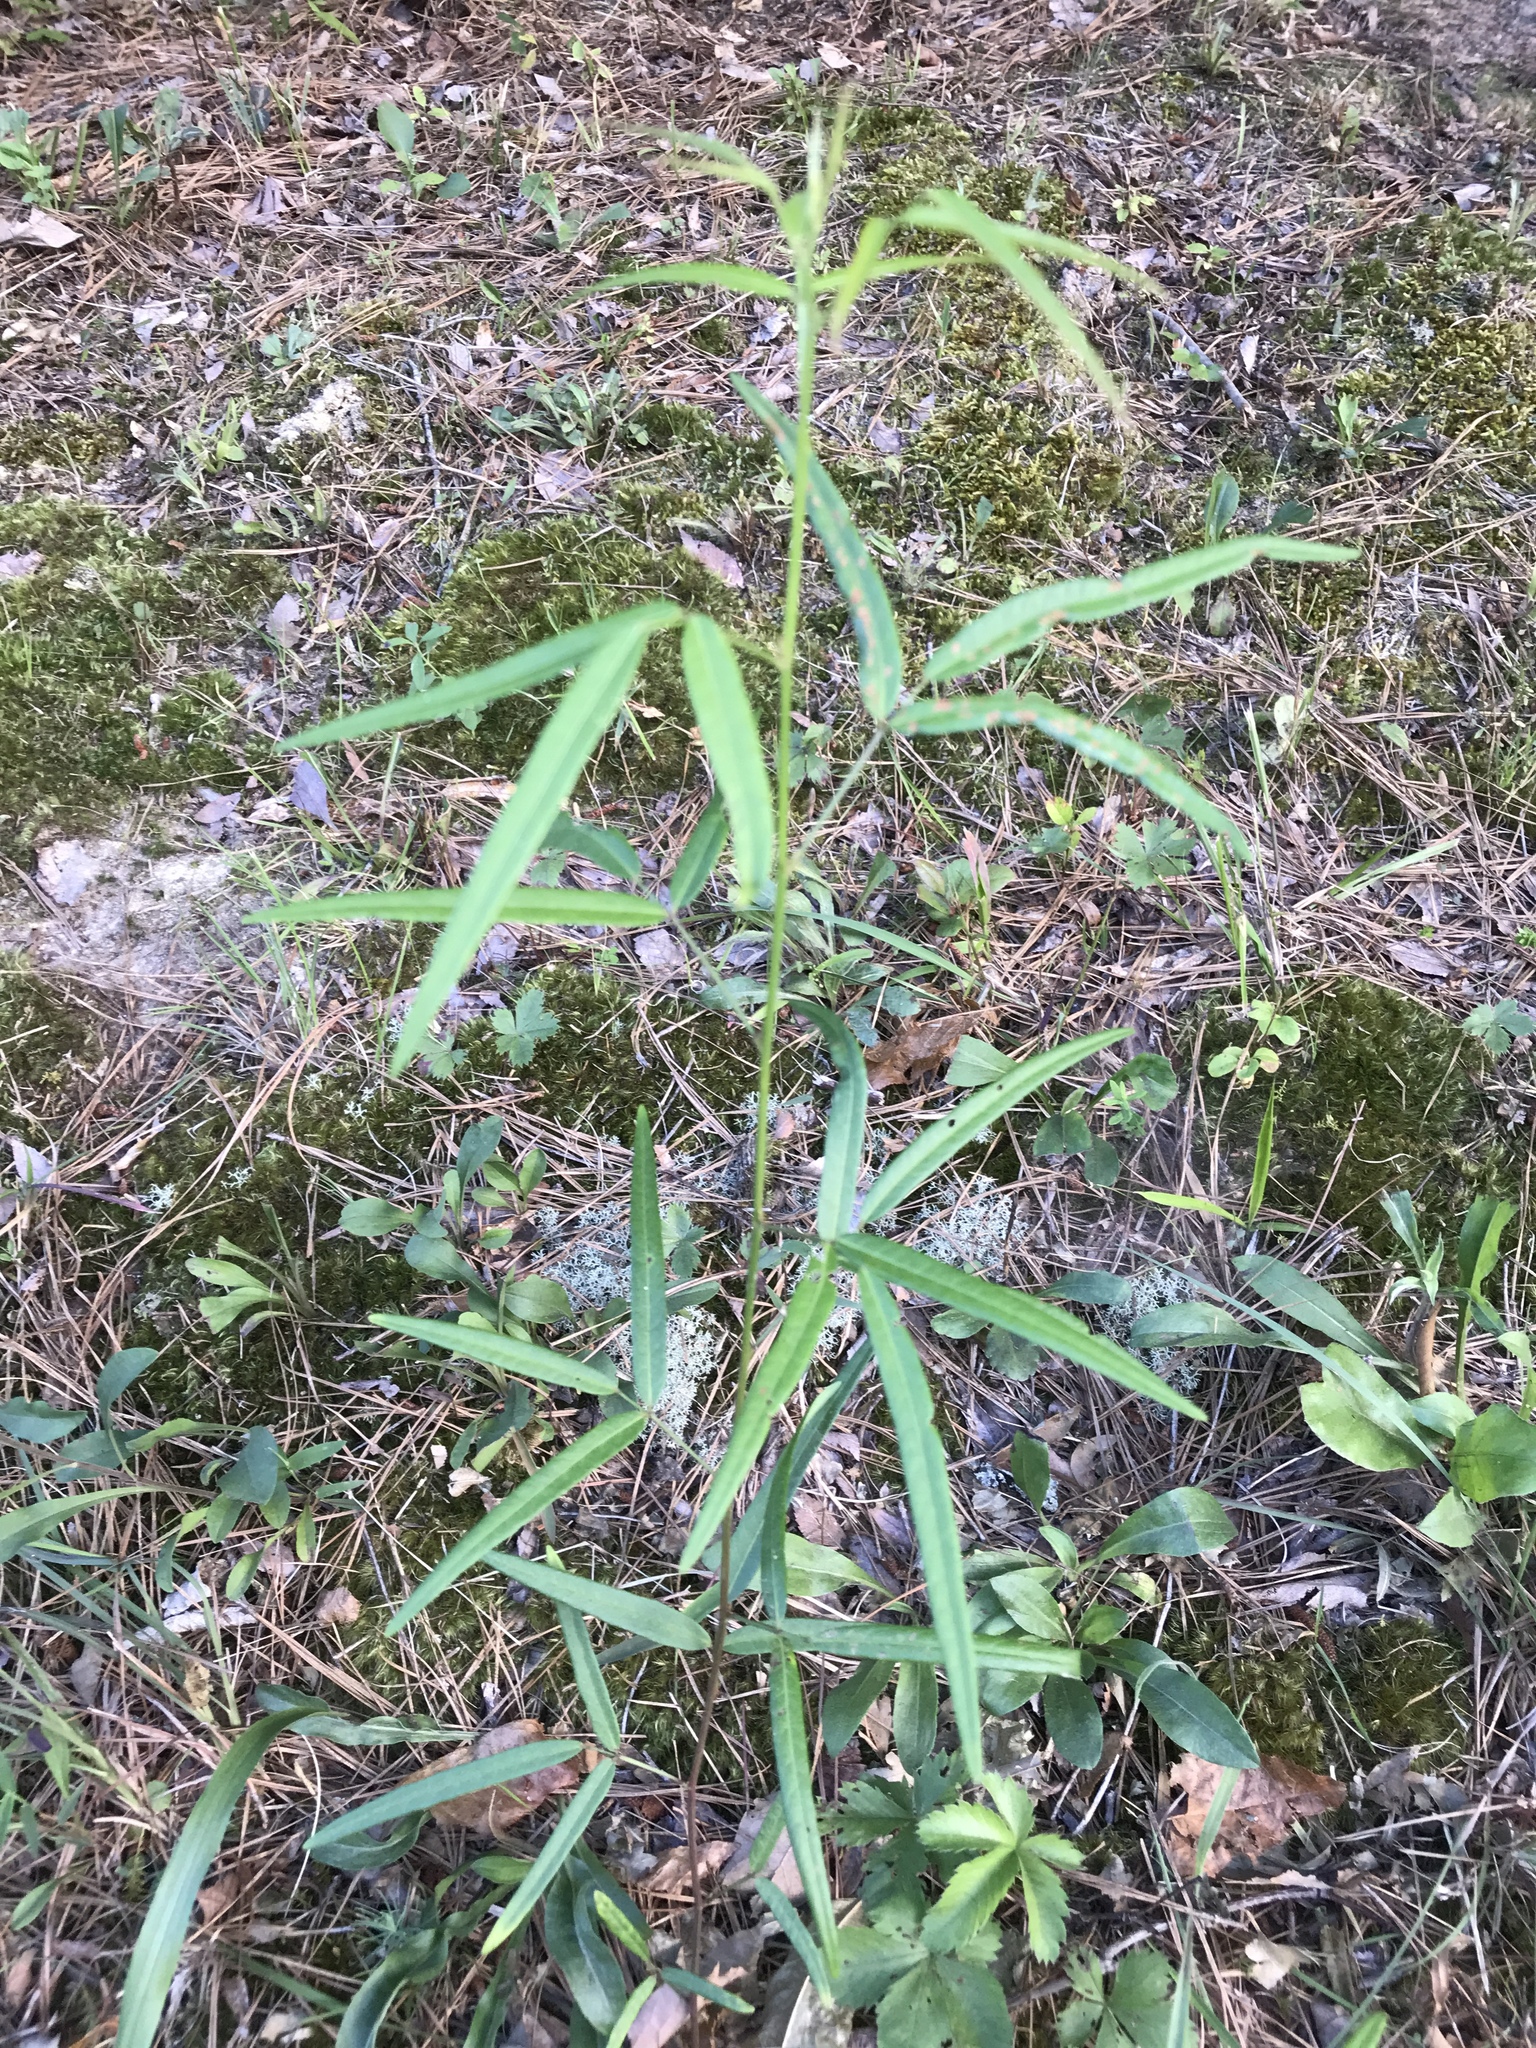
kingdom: Plantae
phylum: Tracheophyta
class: Magnoliopsida
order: Fabales
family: Fabaceae
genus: Desmodium
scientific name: Desmodium paniculatum
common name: Panicled tick-clover
